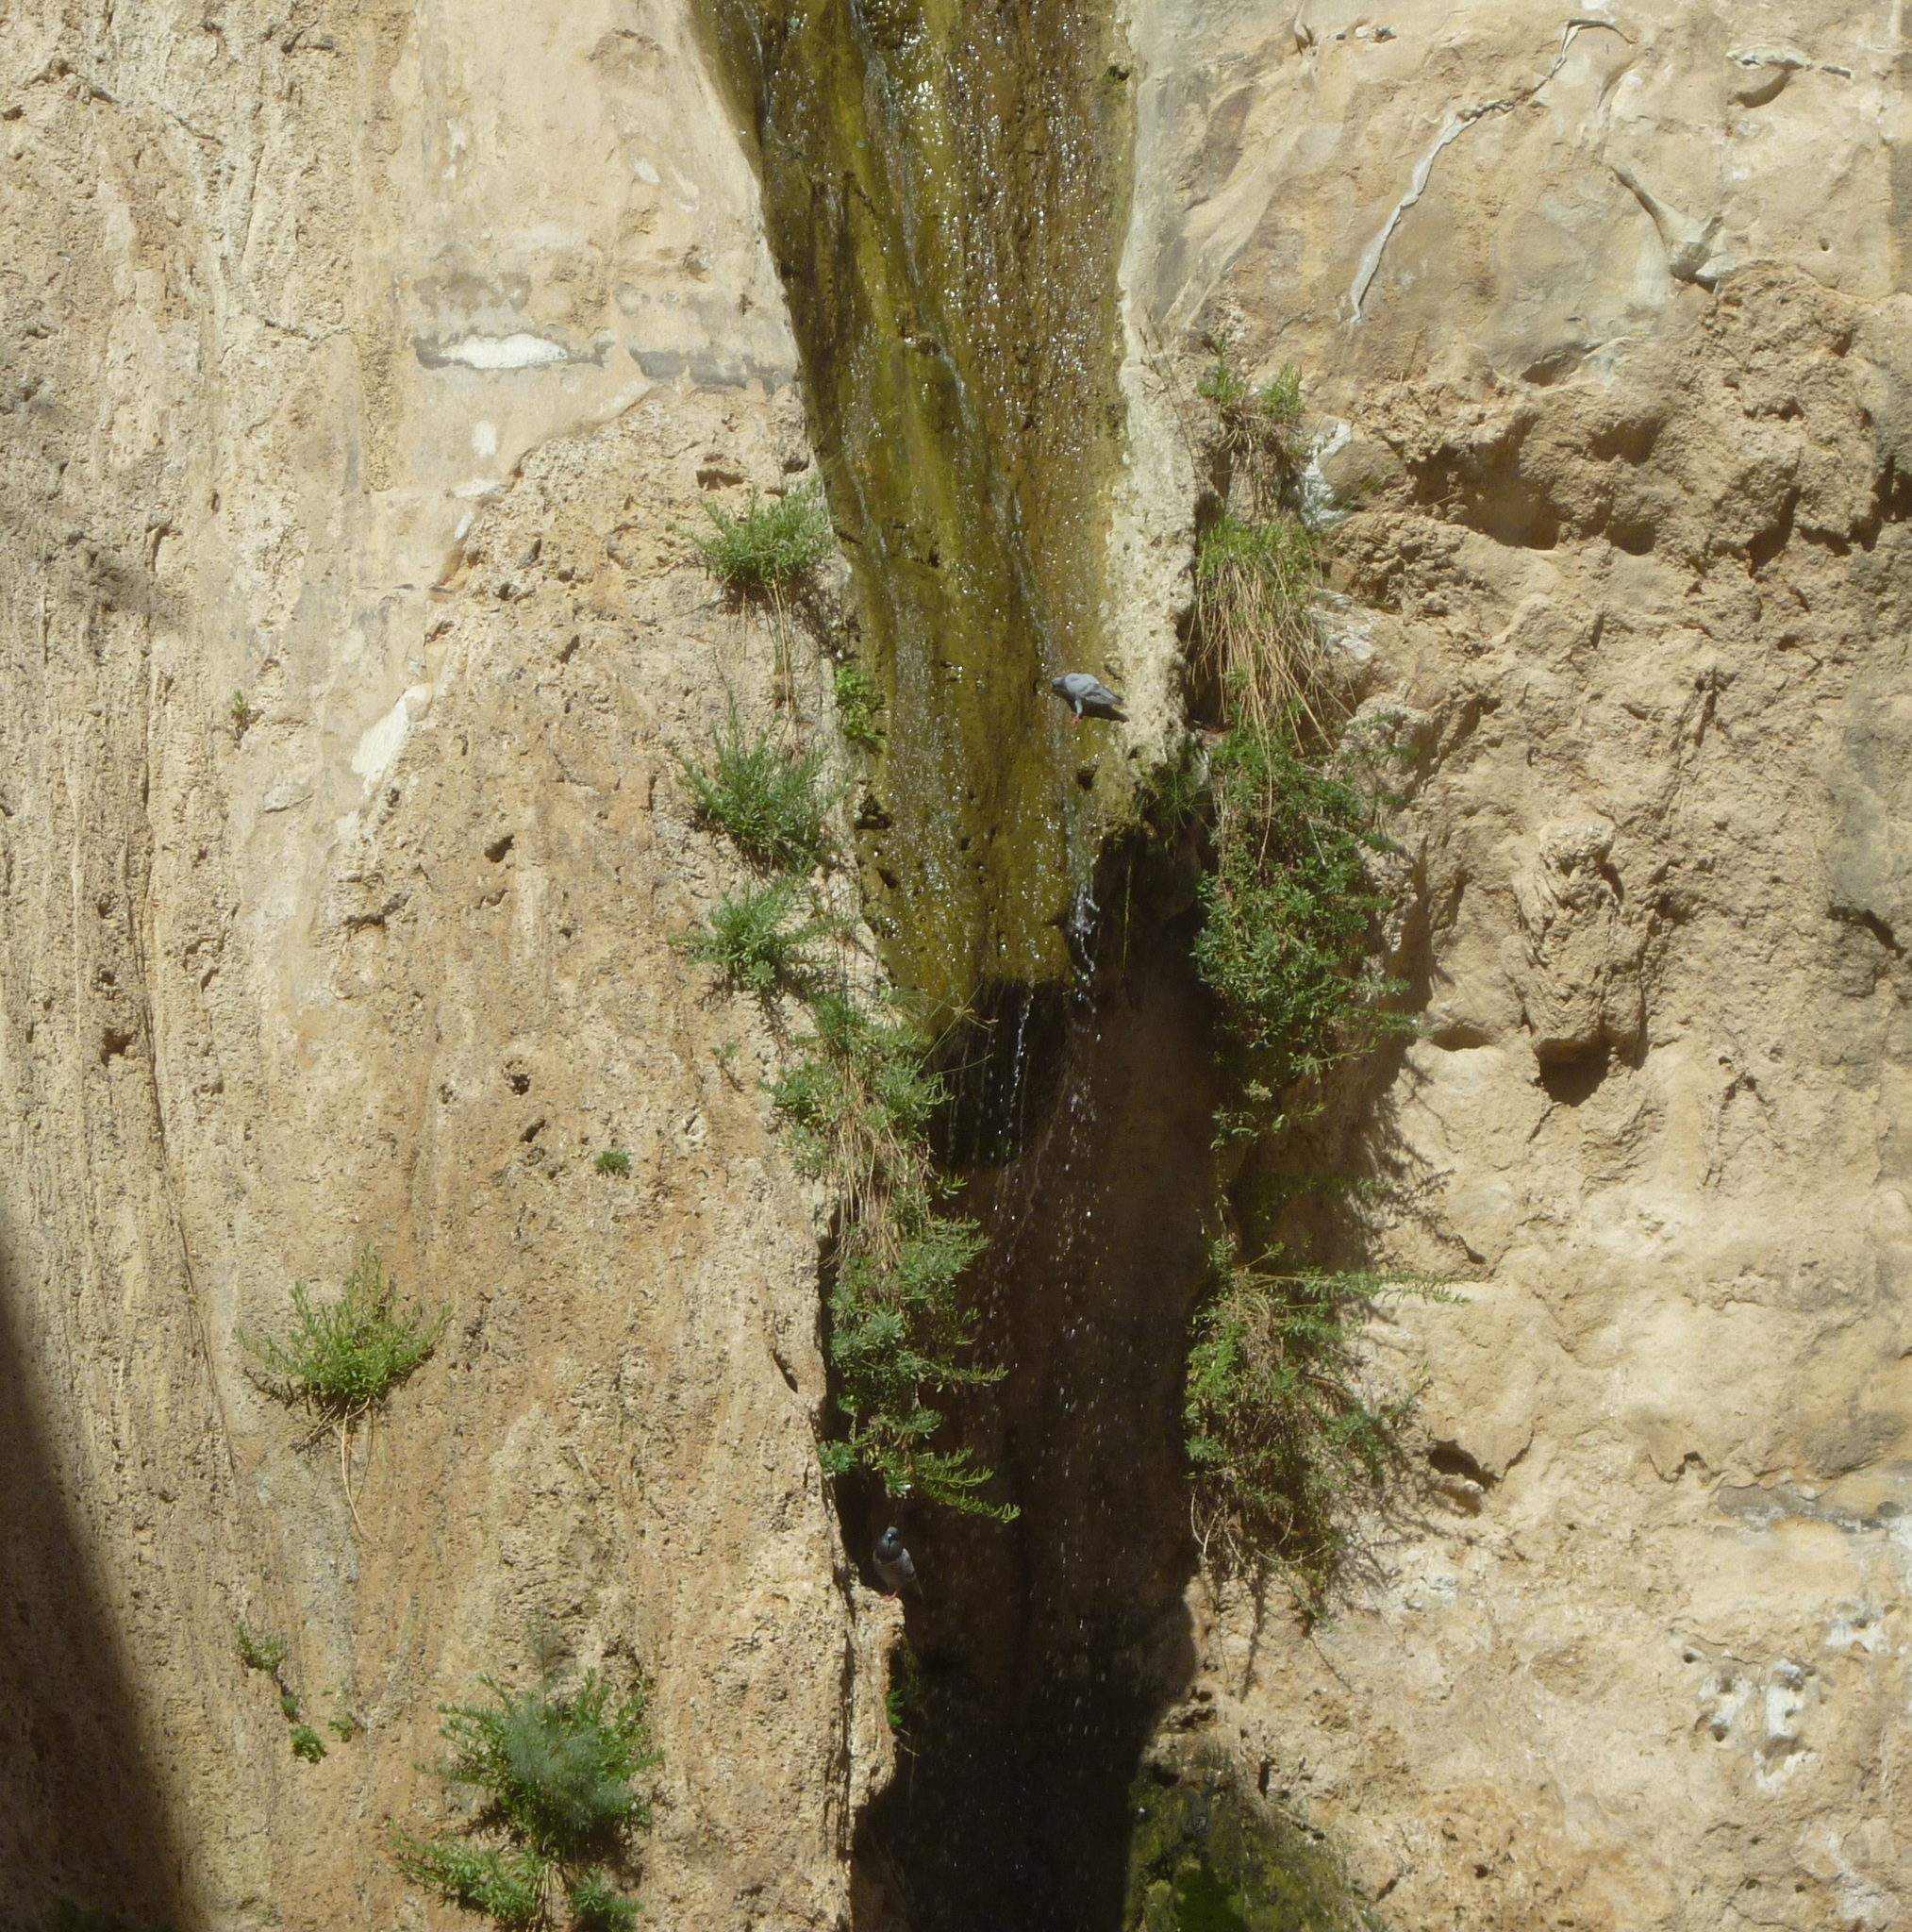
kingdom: Animalia
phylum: Chordata
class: Aves
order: Columbiformes
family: Columbidae
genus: Columba
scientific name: Columba livia
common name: Rock pigeon
